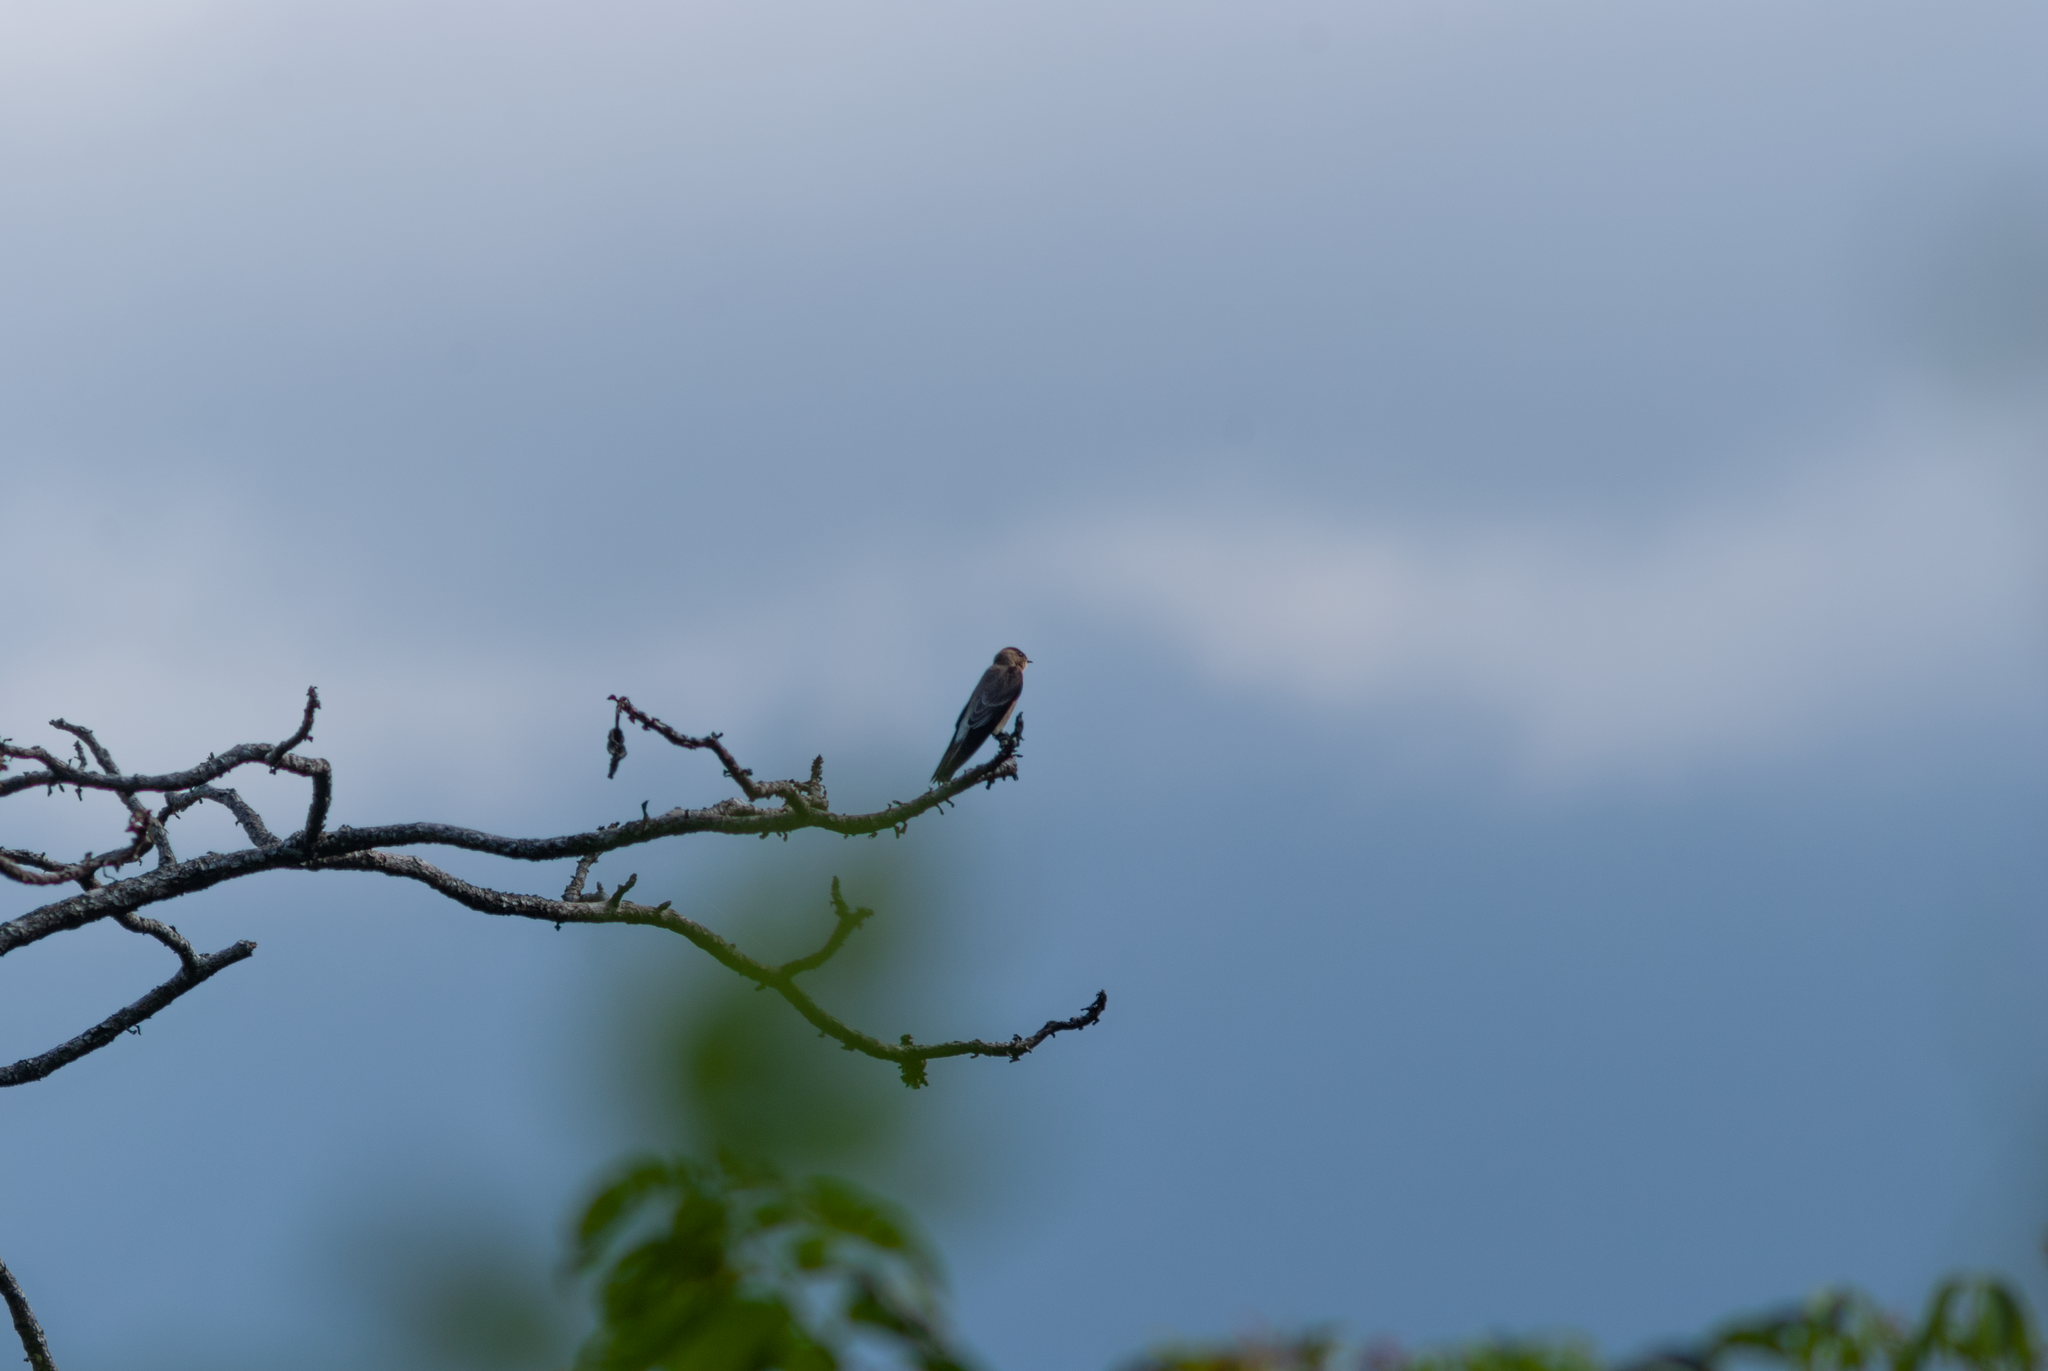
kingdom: Animalia
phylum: Chordata
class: Aves
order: Passeriformes
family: Hirundinidae
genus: Stelgidopteryx
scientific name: Stelgidopteryx ruficollis
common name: Southern rough-winged swallow
